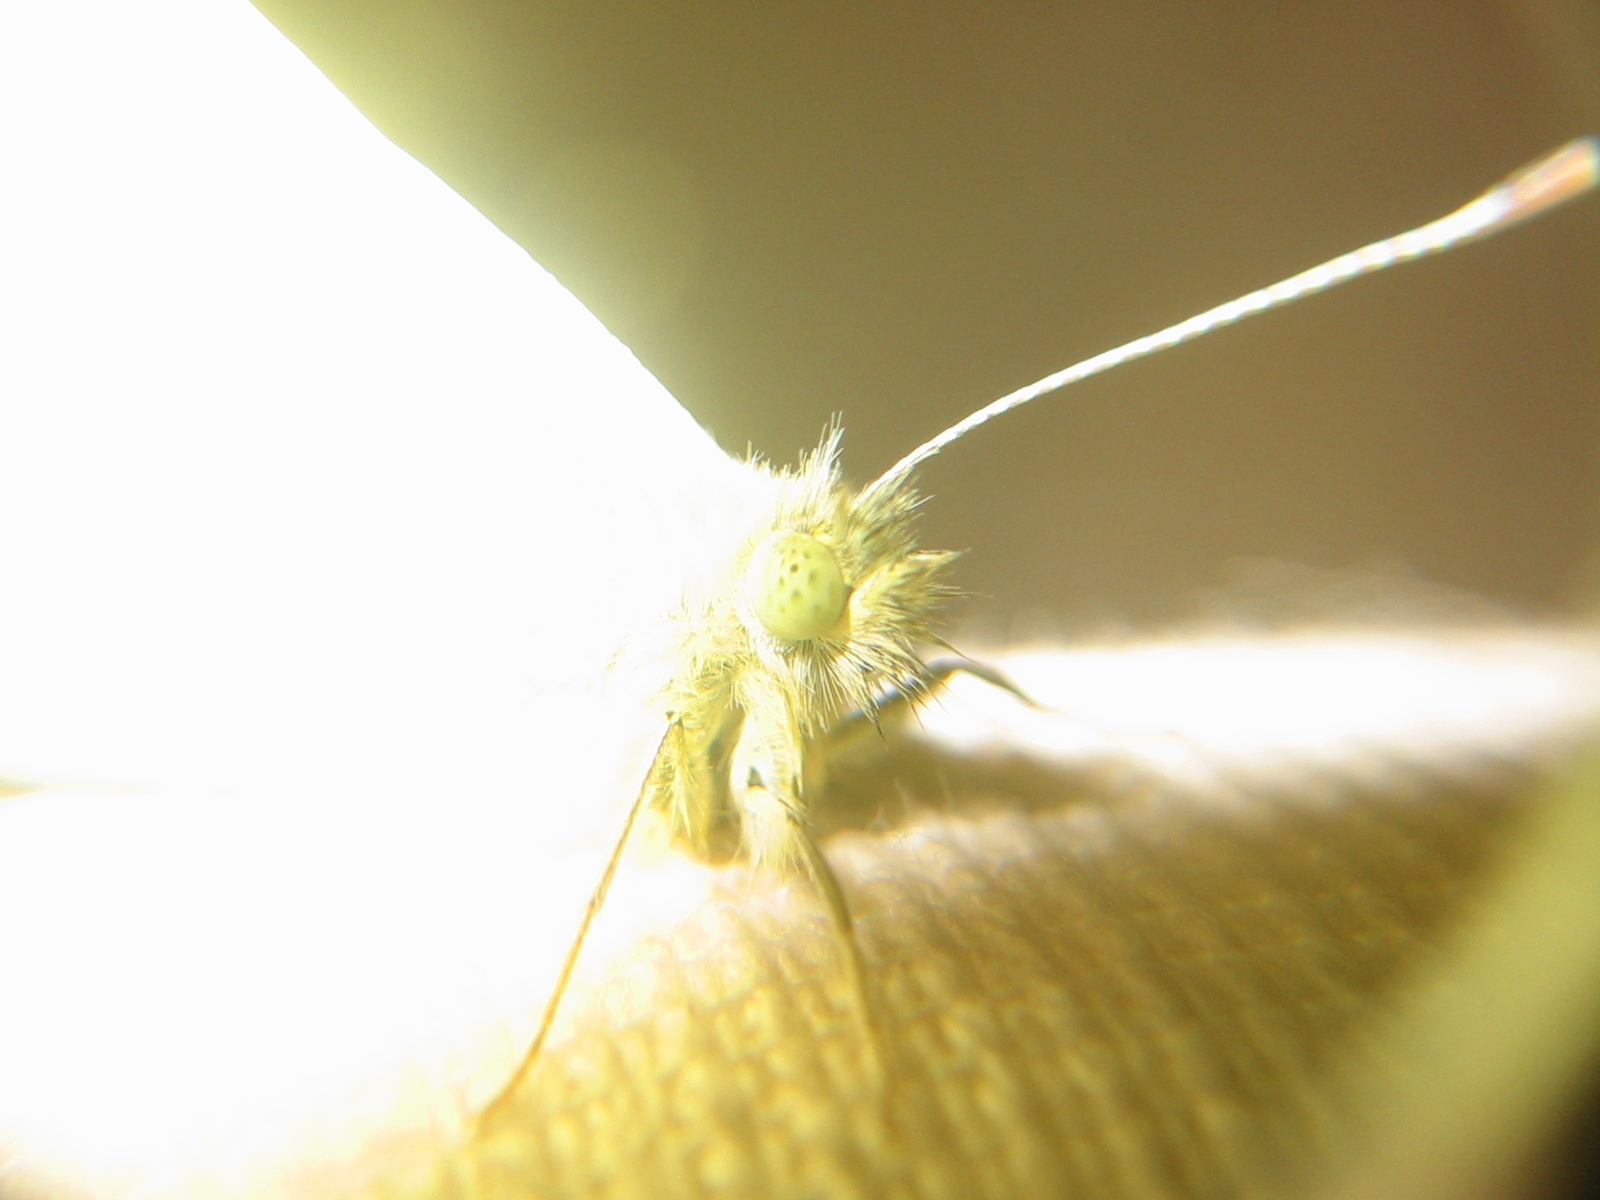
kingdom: Animalia
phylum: Arthropoda
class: Insecta
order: Lepidoptera
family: Pieridae
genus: Pieris
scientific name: Pieris rapae
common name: Small white
